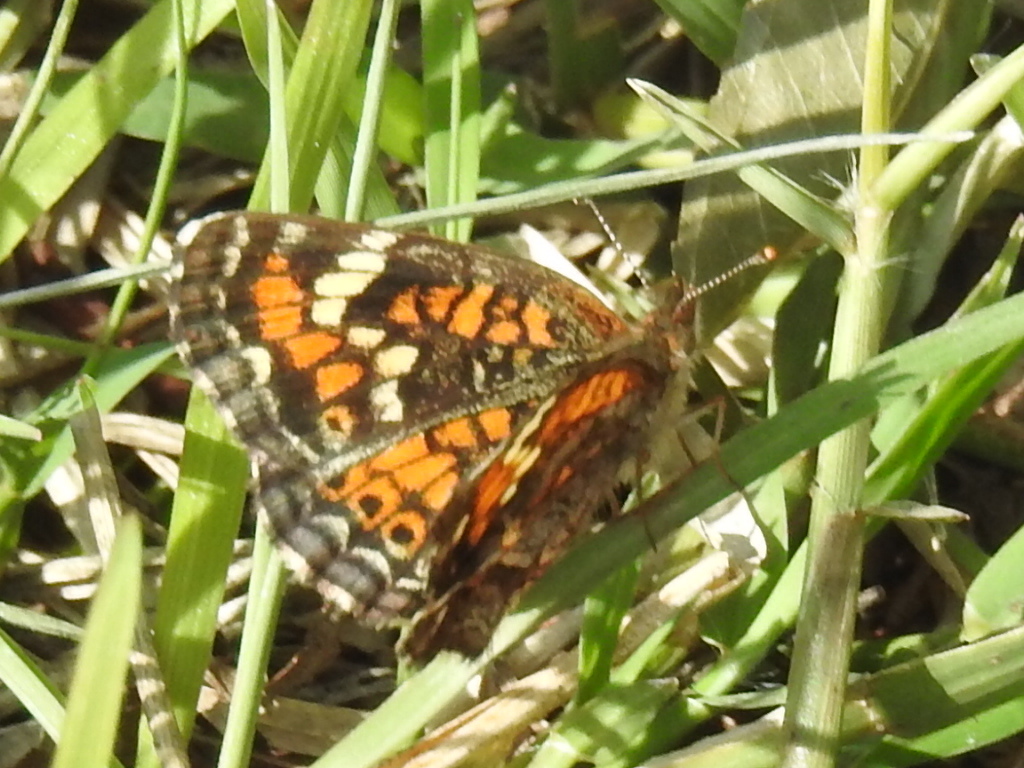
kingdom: Animalia
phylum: Arthropoda
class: Insecta
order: Lepidoptera
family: Nymphalidae
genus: Phyciodes
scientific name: Phyciodes phaon
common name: Phaon crescent
